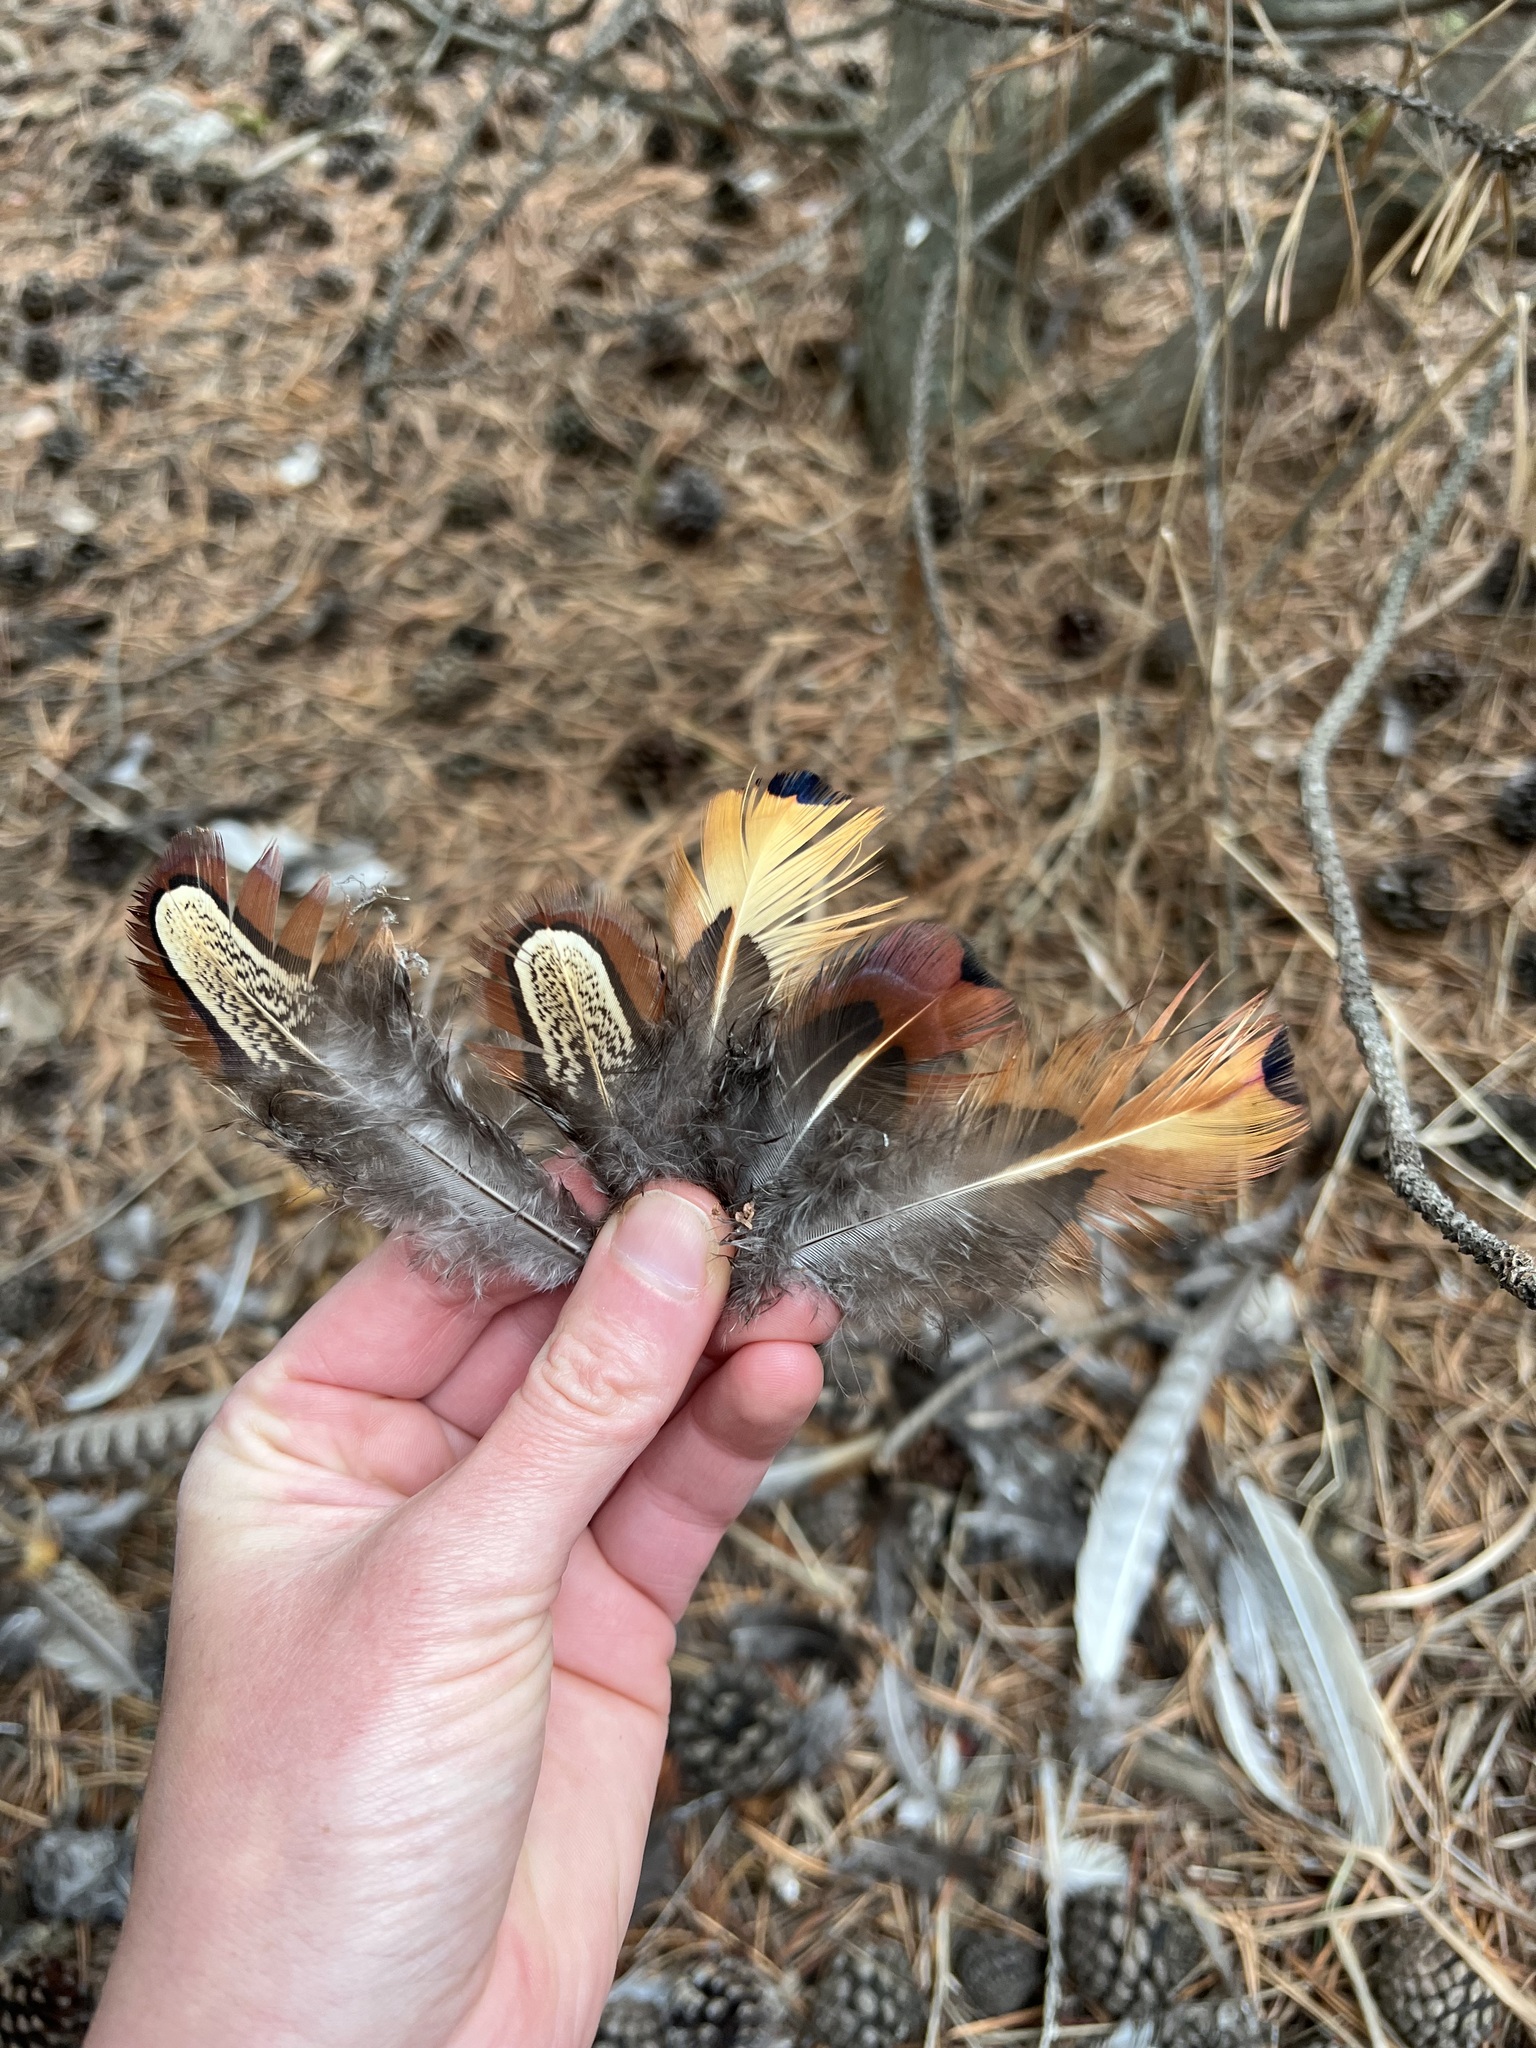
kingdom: Animalia
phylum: Chordata
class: Aves
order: Galliformes
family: Phasianidae
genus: Phasianus
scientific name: Phasianus colchicus
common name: Common pheasant
